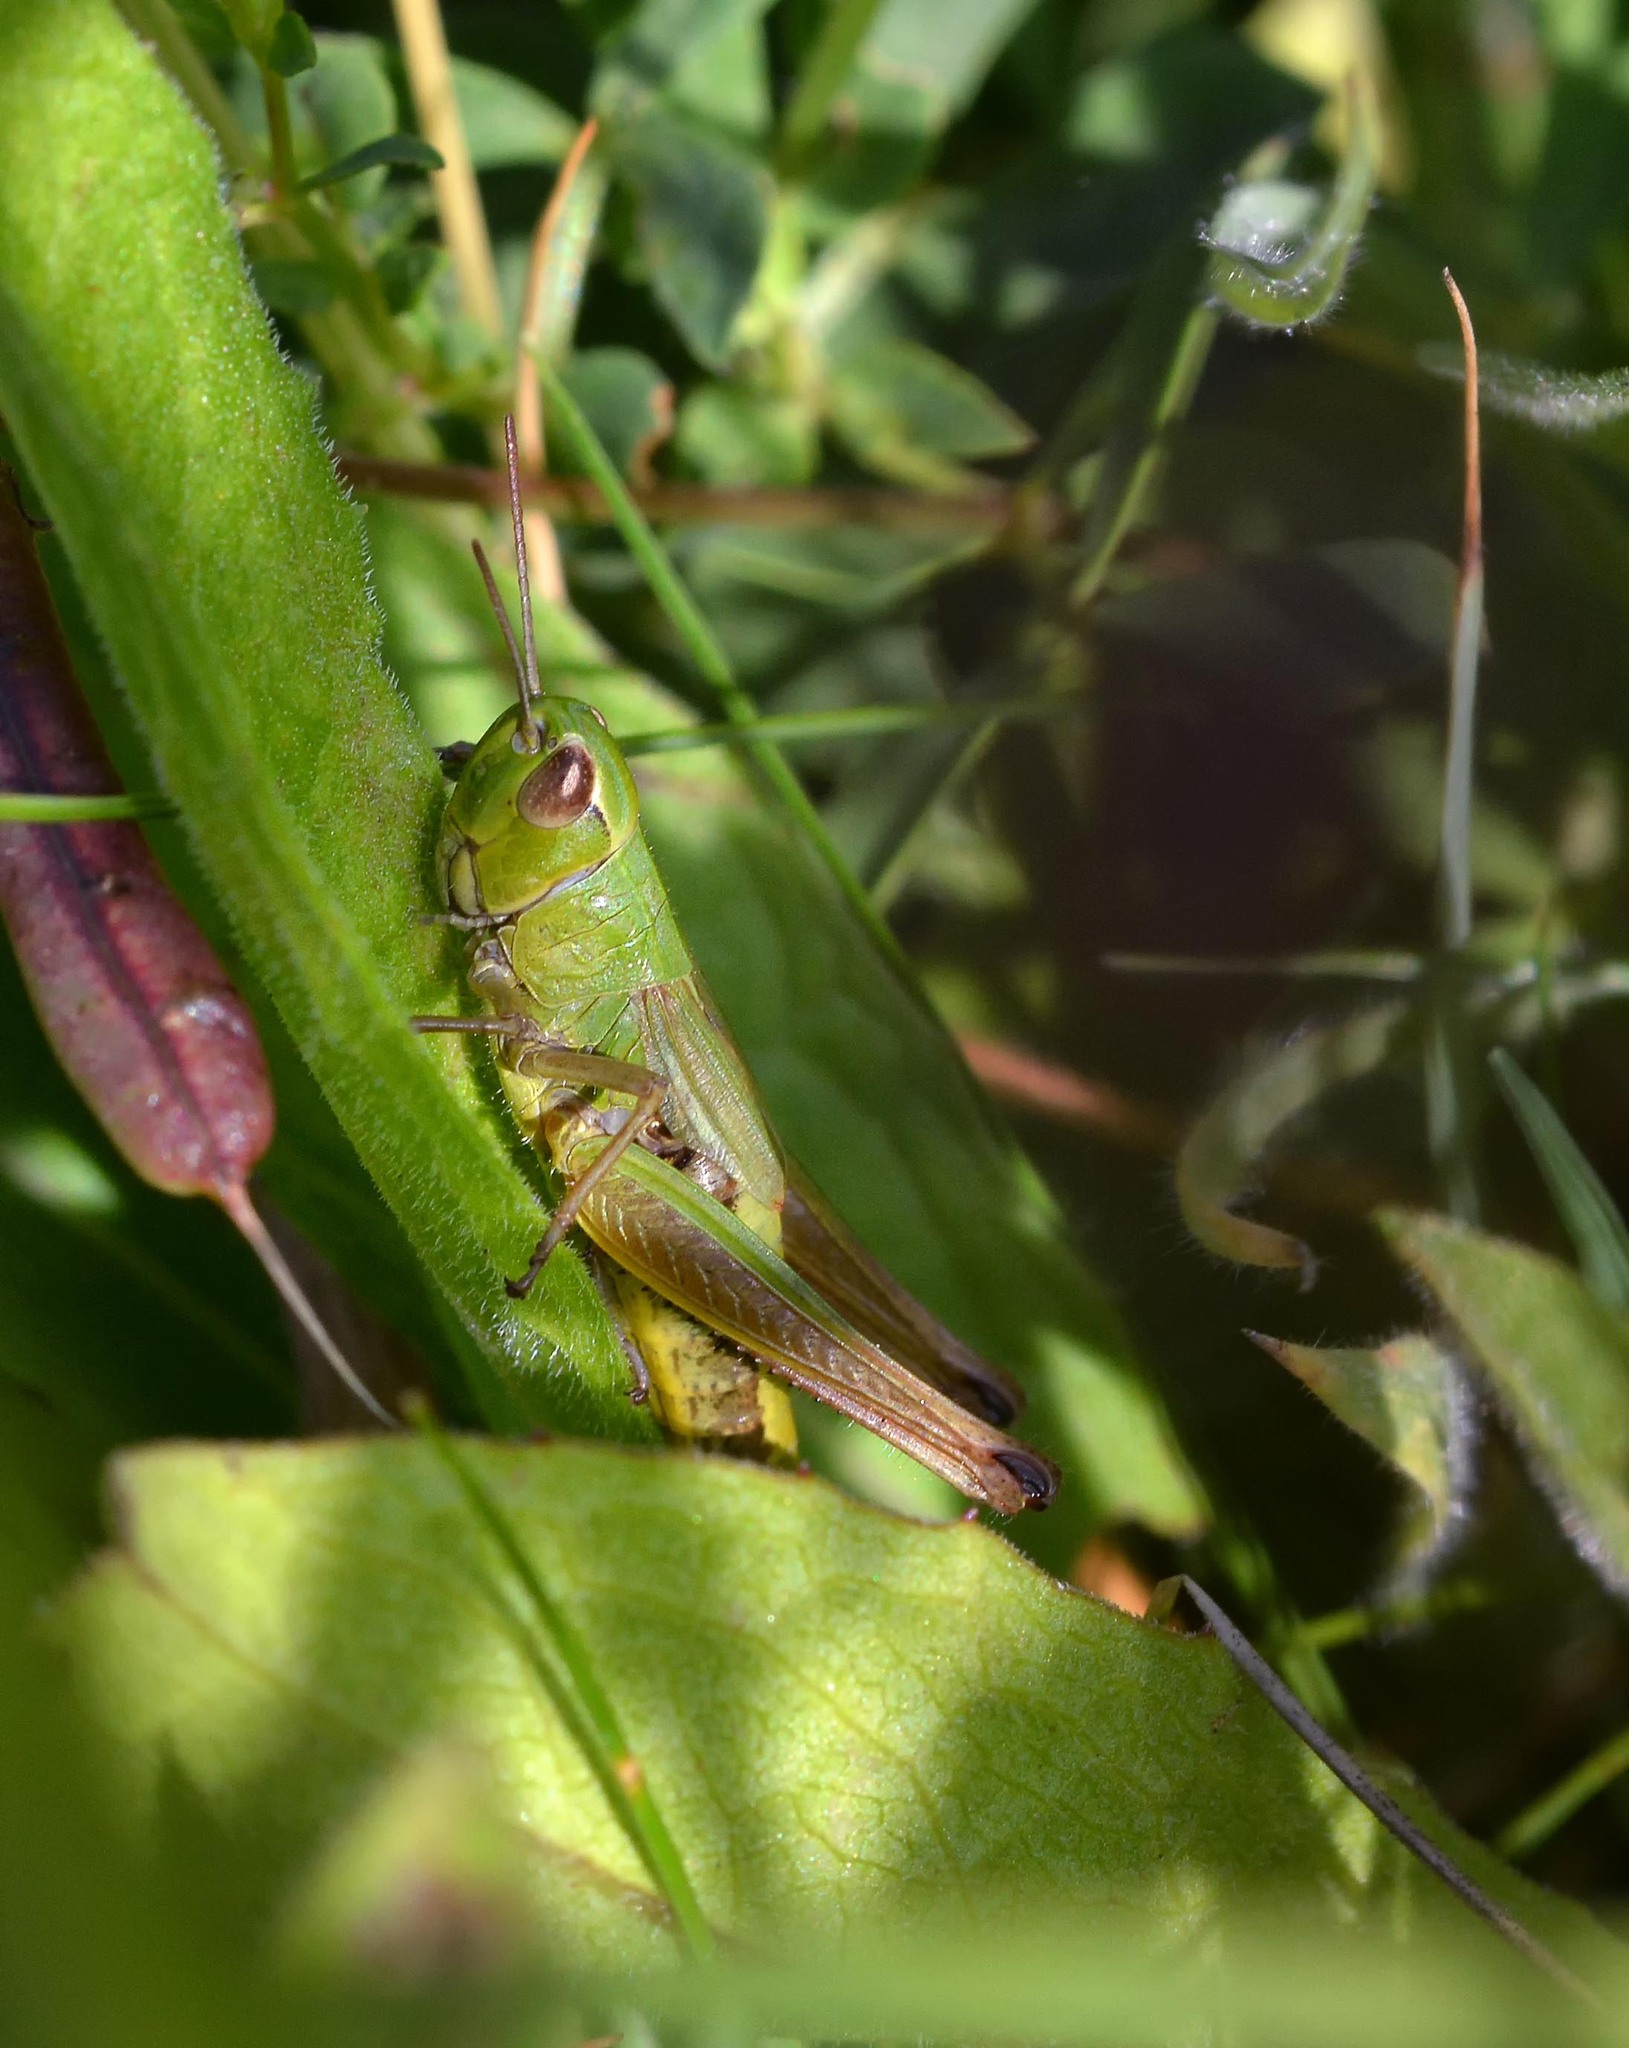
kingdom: Animalia
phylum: Arthropoda
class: Insecta
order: Orthoptera
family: Acrididae
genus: Pseudochorthippus
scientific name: Pseudochorthippus parallelus
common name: Meadow grasshopper
